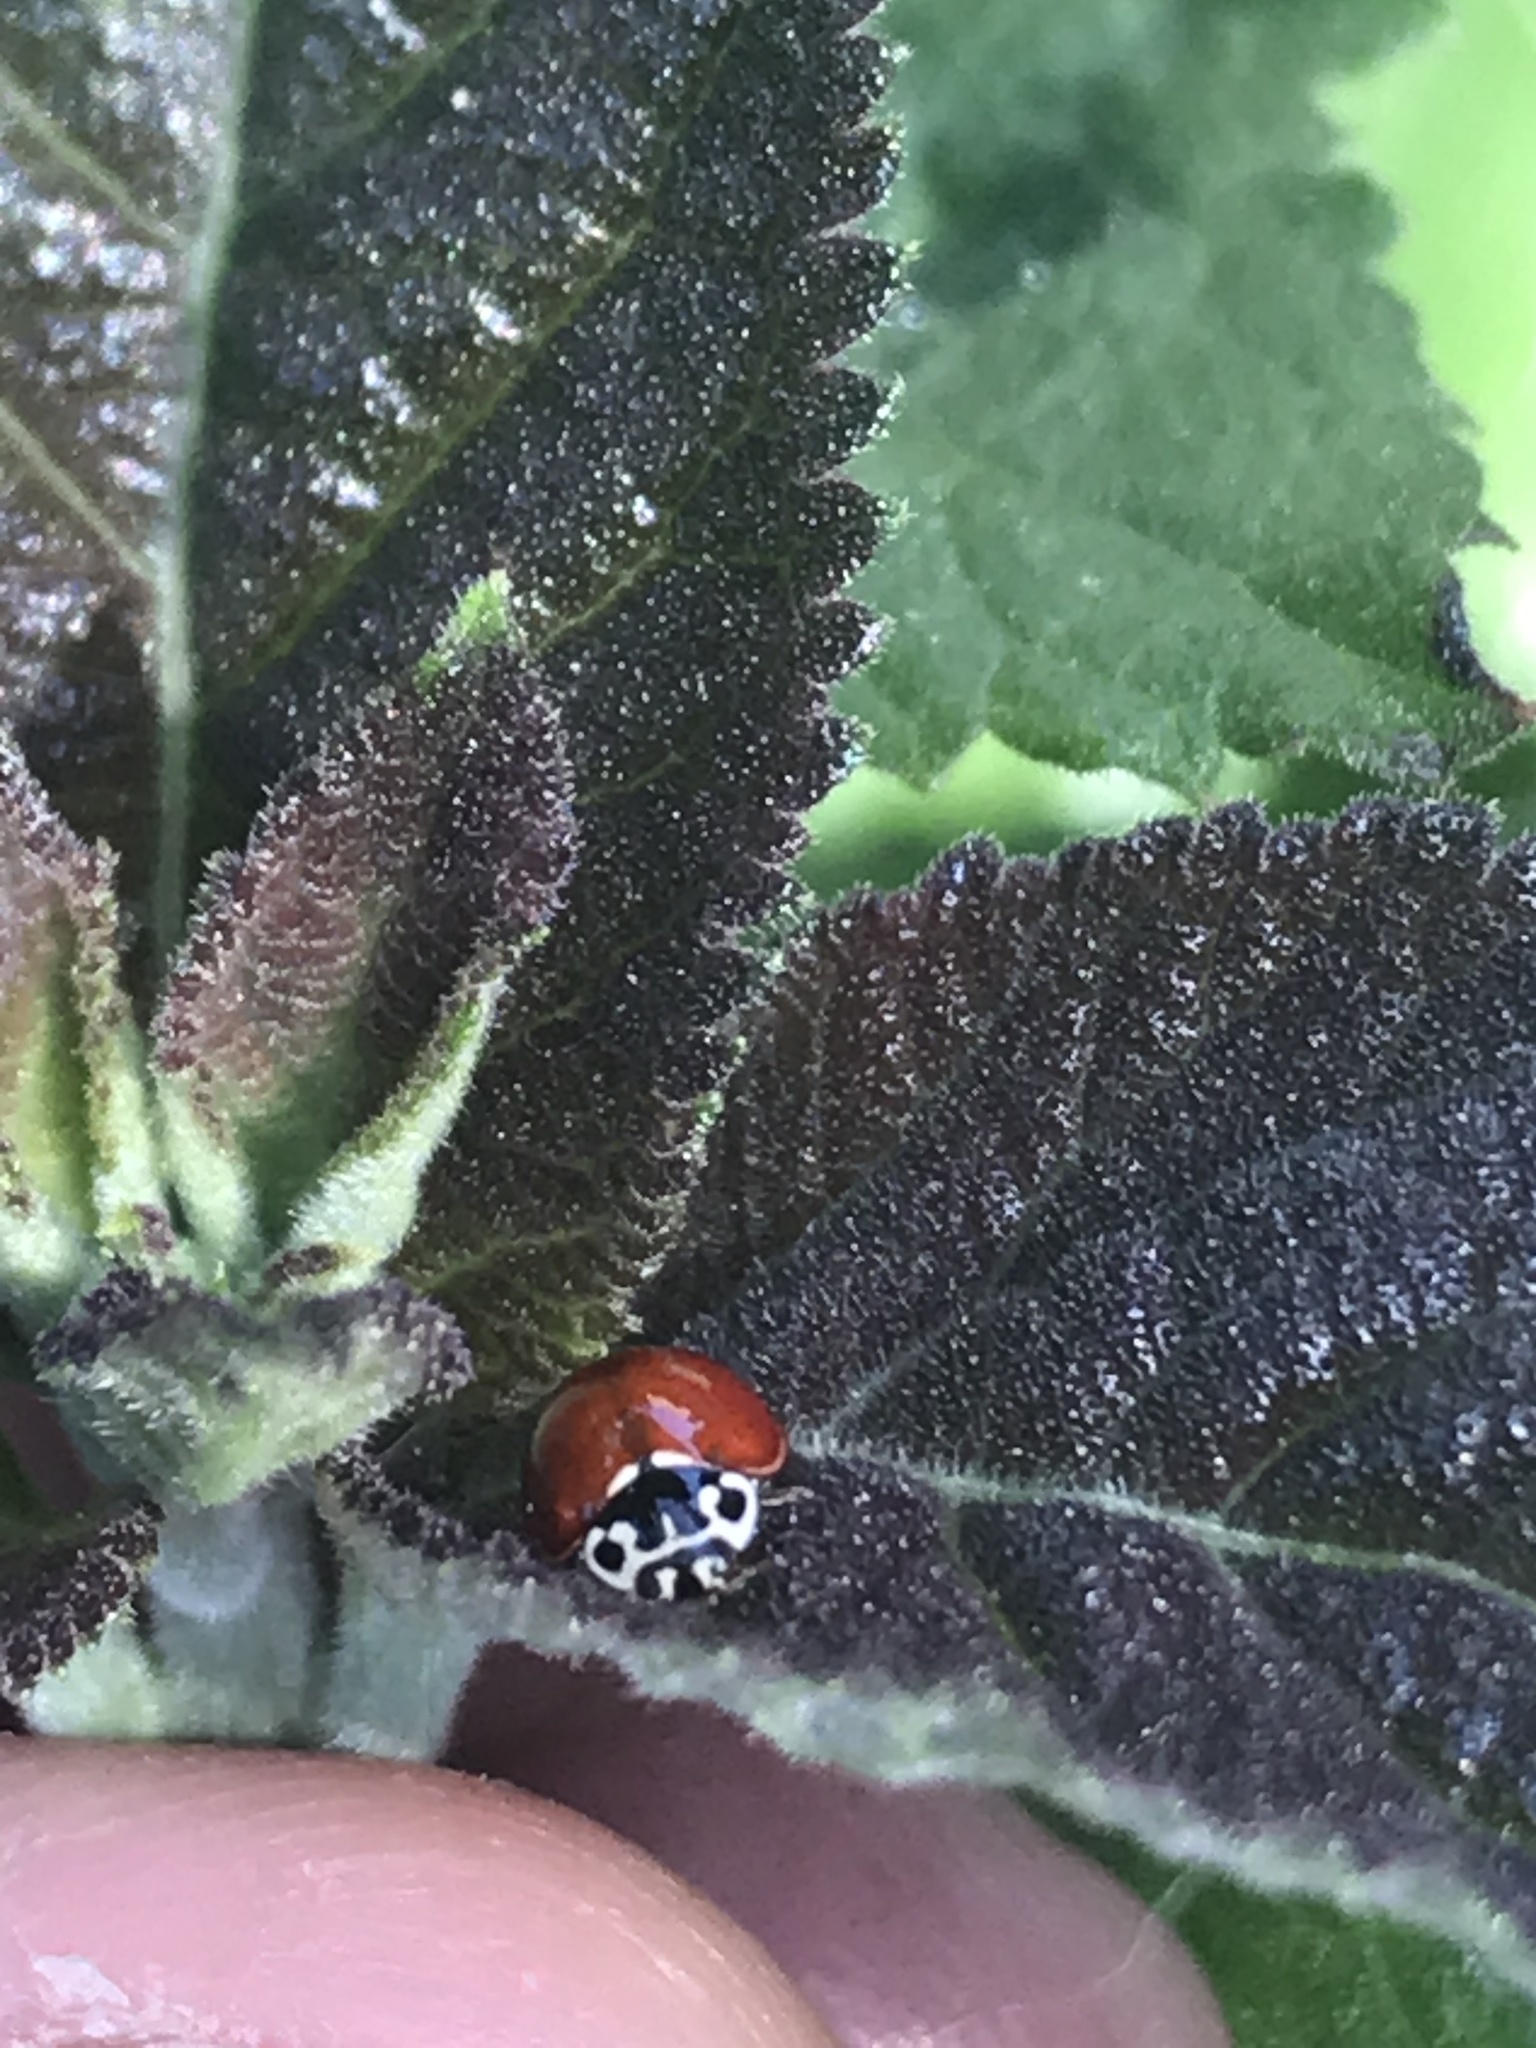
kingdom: Animalia
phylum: Arthropoda
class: Insecta
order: Coleoptera
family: Coccinellidae
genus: Cycloneda
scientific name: Cycloneda polita
